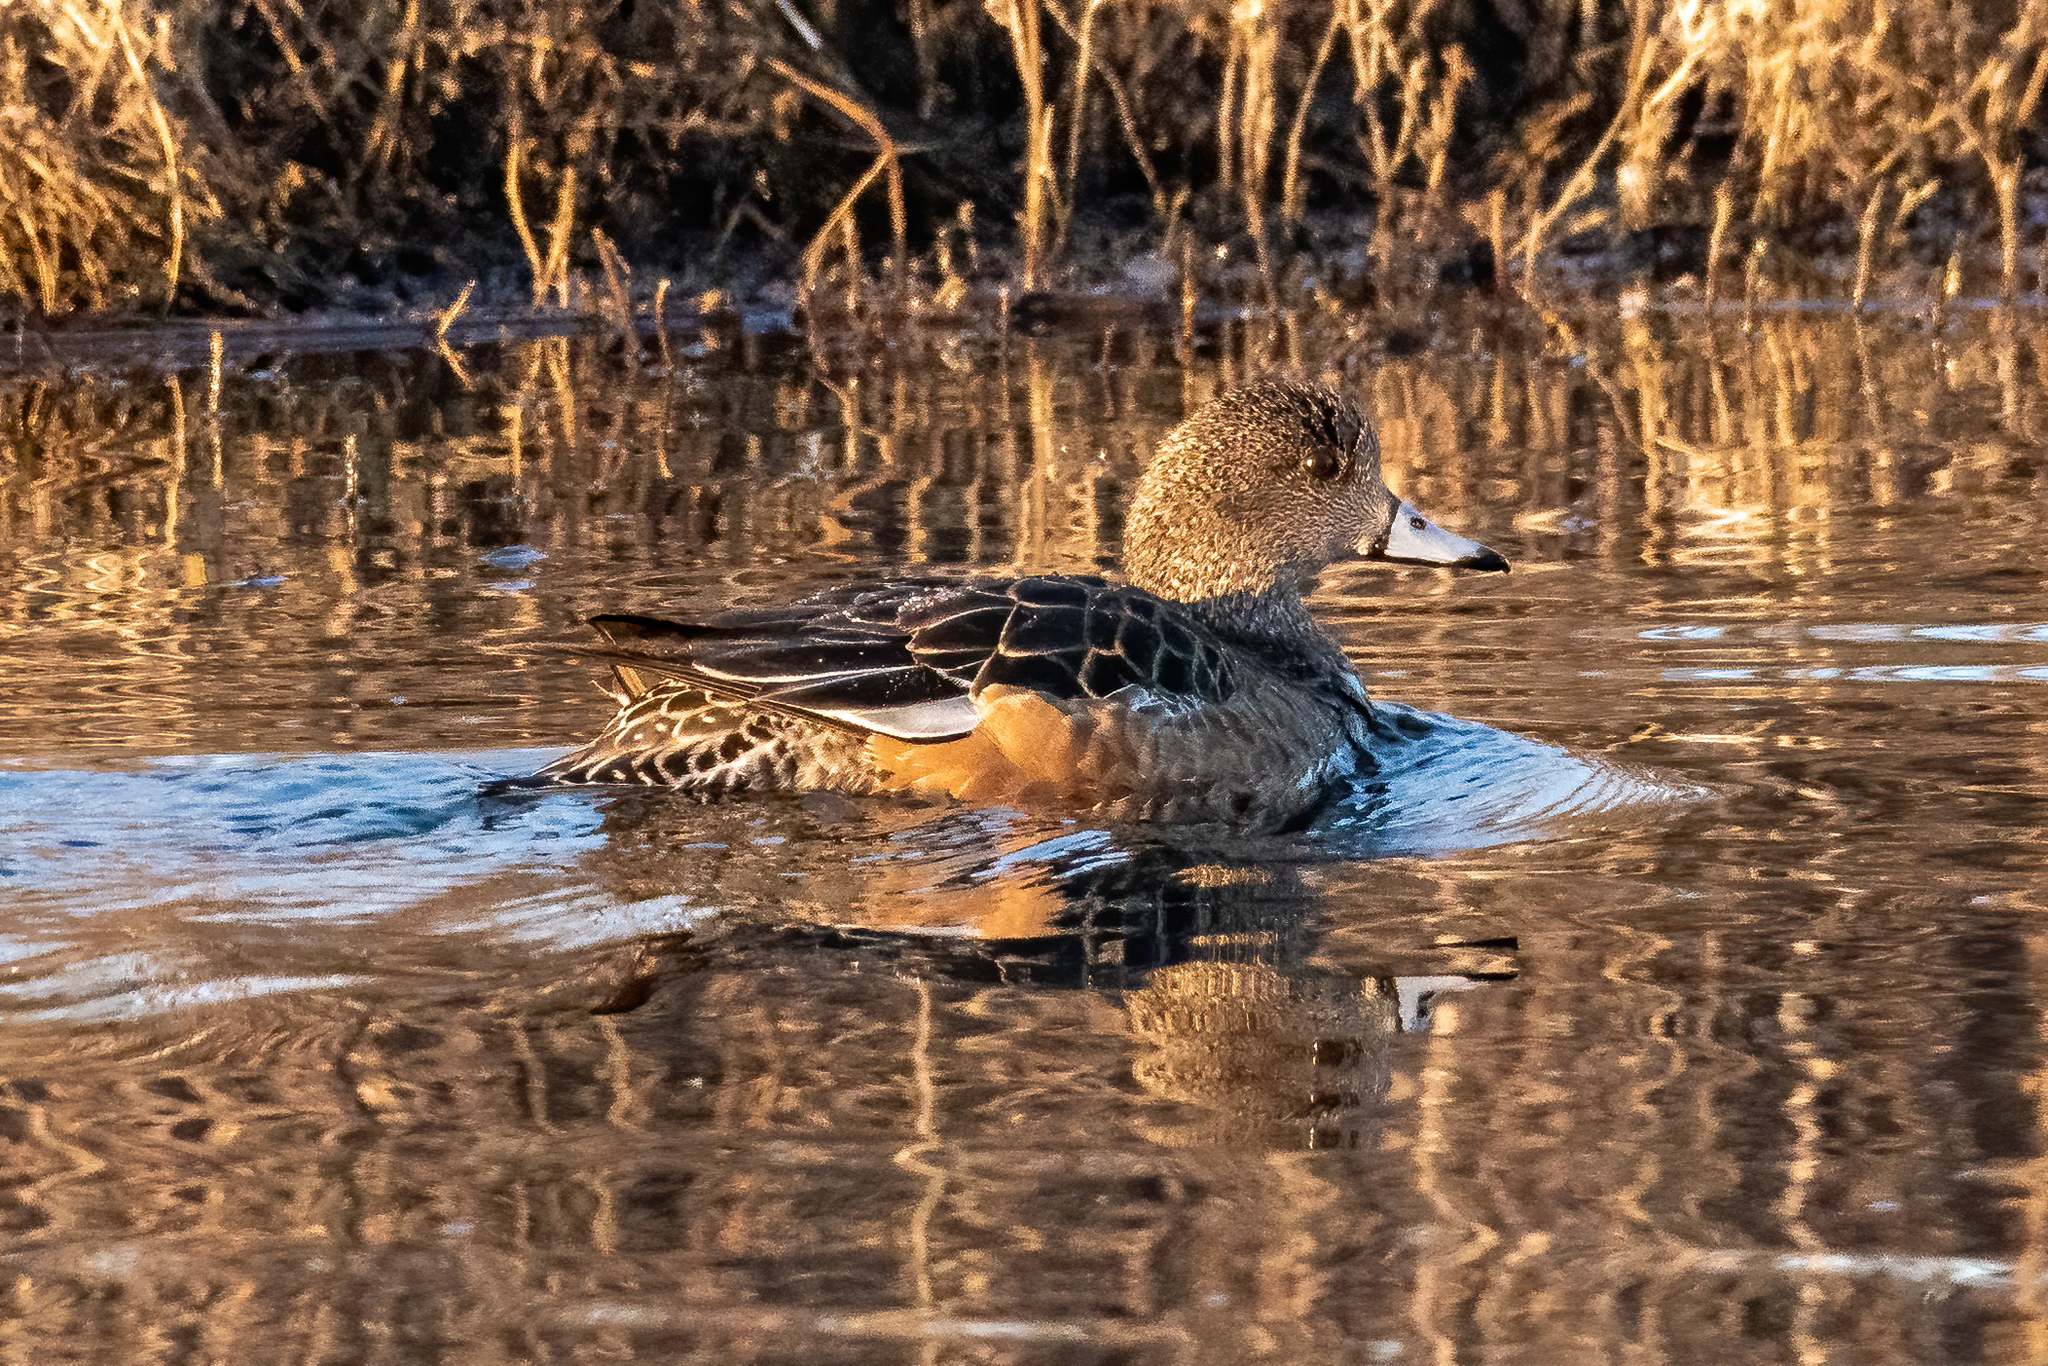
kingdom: Animalia
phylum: Chordata
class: Aves
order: Anseriformes
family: Anatidae
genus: Mareca
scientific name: Mareca americana
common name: American wigeon
